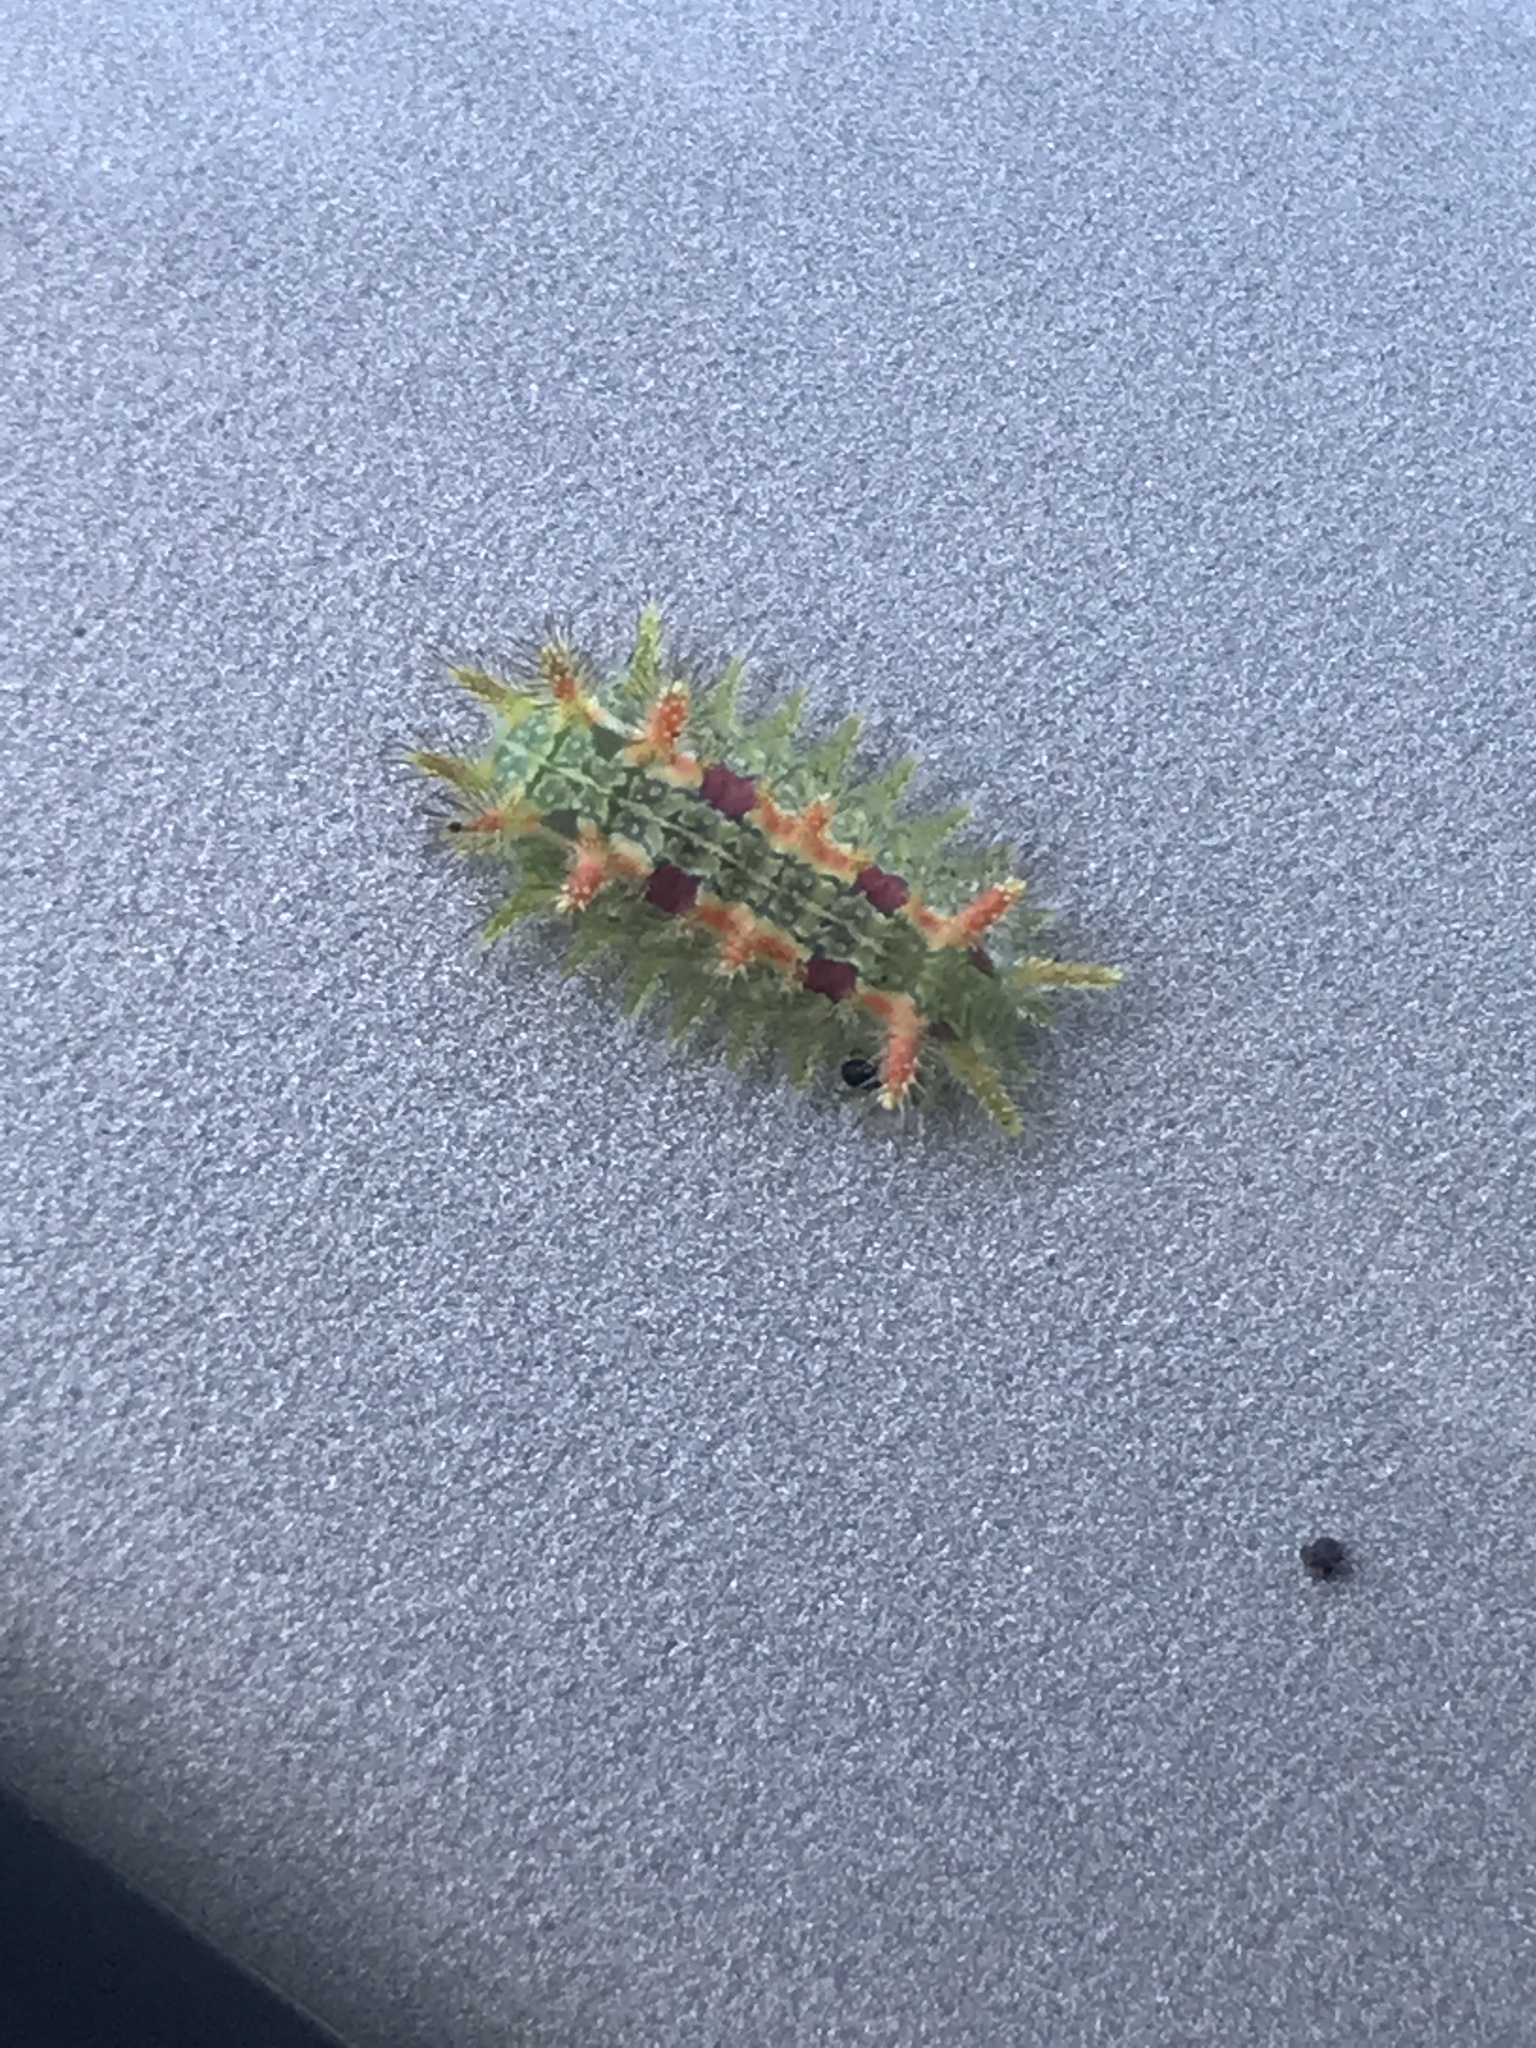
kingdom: Animalia
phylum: Arthropoda
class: Insecta
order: Lepidoptera
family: Limacodidae
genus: Euclea
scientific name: Euclea delphinii
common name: Spiny oak-slug moth
